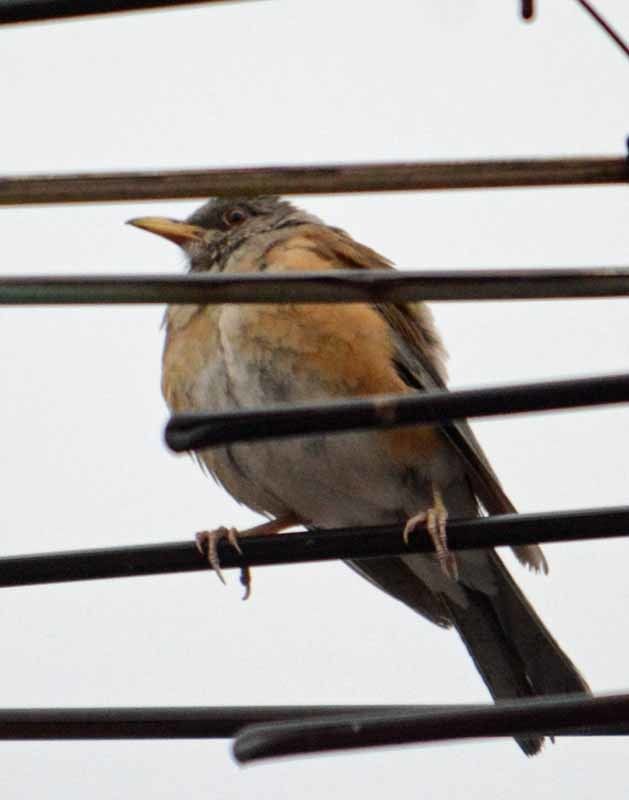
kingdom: Animalia
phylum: Chordata
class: Aves
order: Passeriformes
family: Turdidae
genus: Turdus
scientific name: Turdus rufopalliatus
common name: Rufous-backed robin
